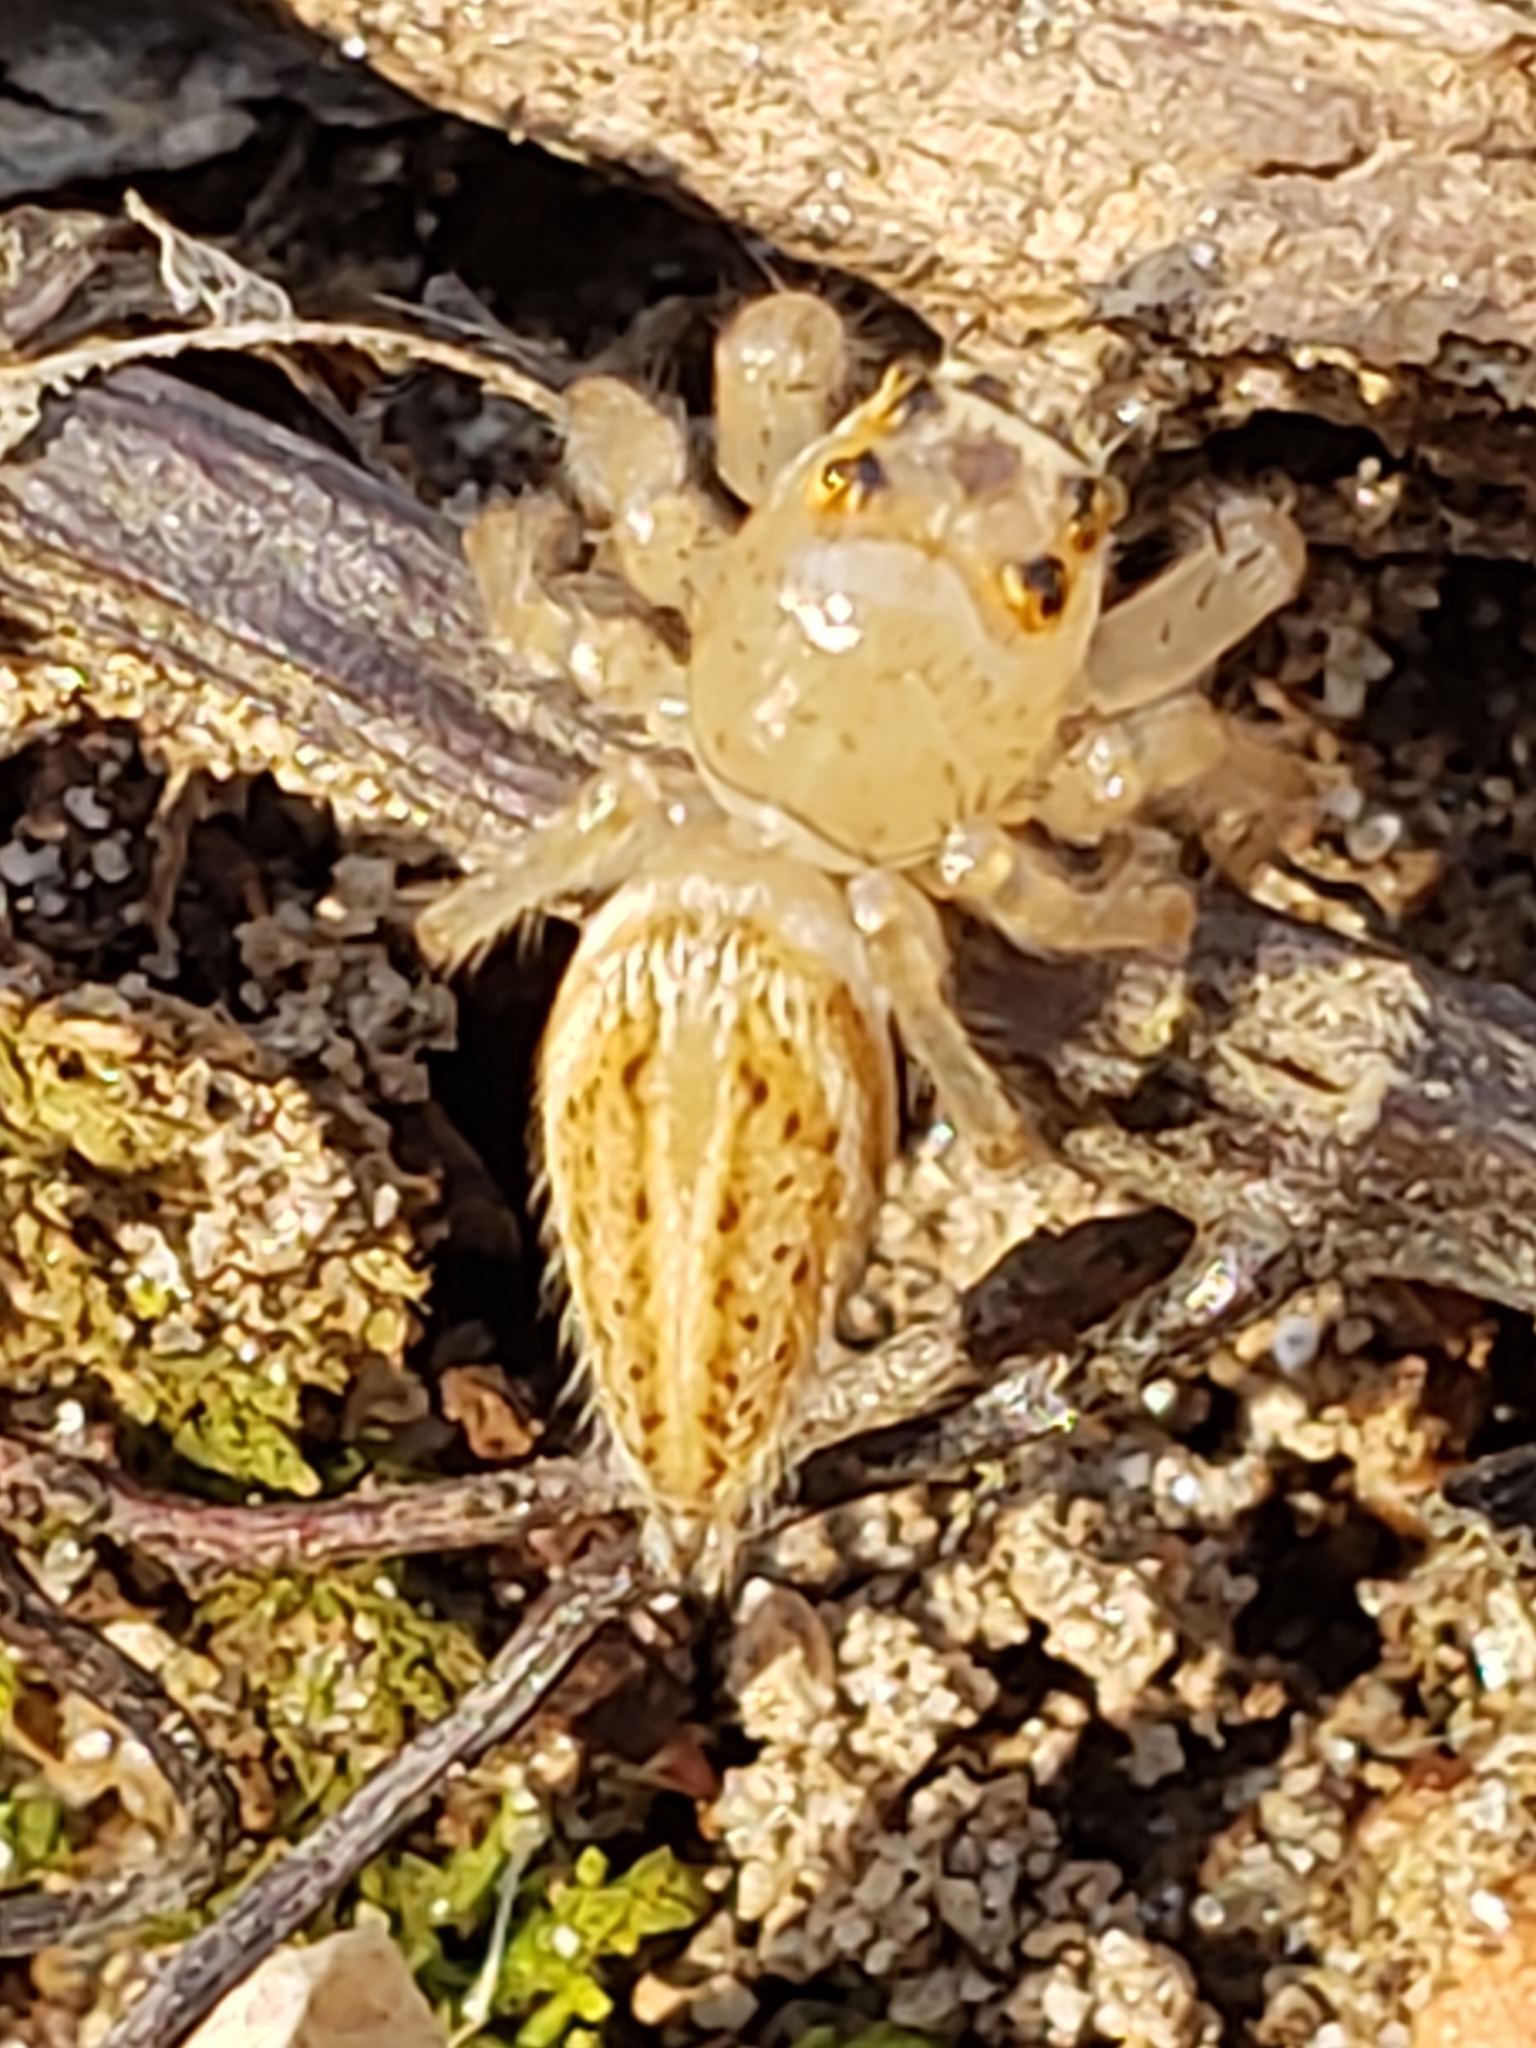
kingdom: Animalia
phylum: Arthropoda
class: Arachnida
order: Araneae
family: Salticidae
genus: Colonus
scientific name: Colonus sylvanus
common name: Jumping spiders
